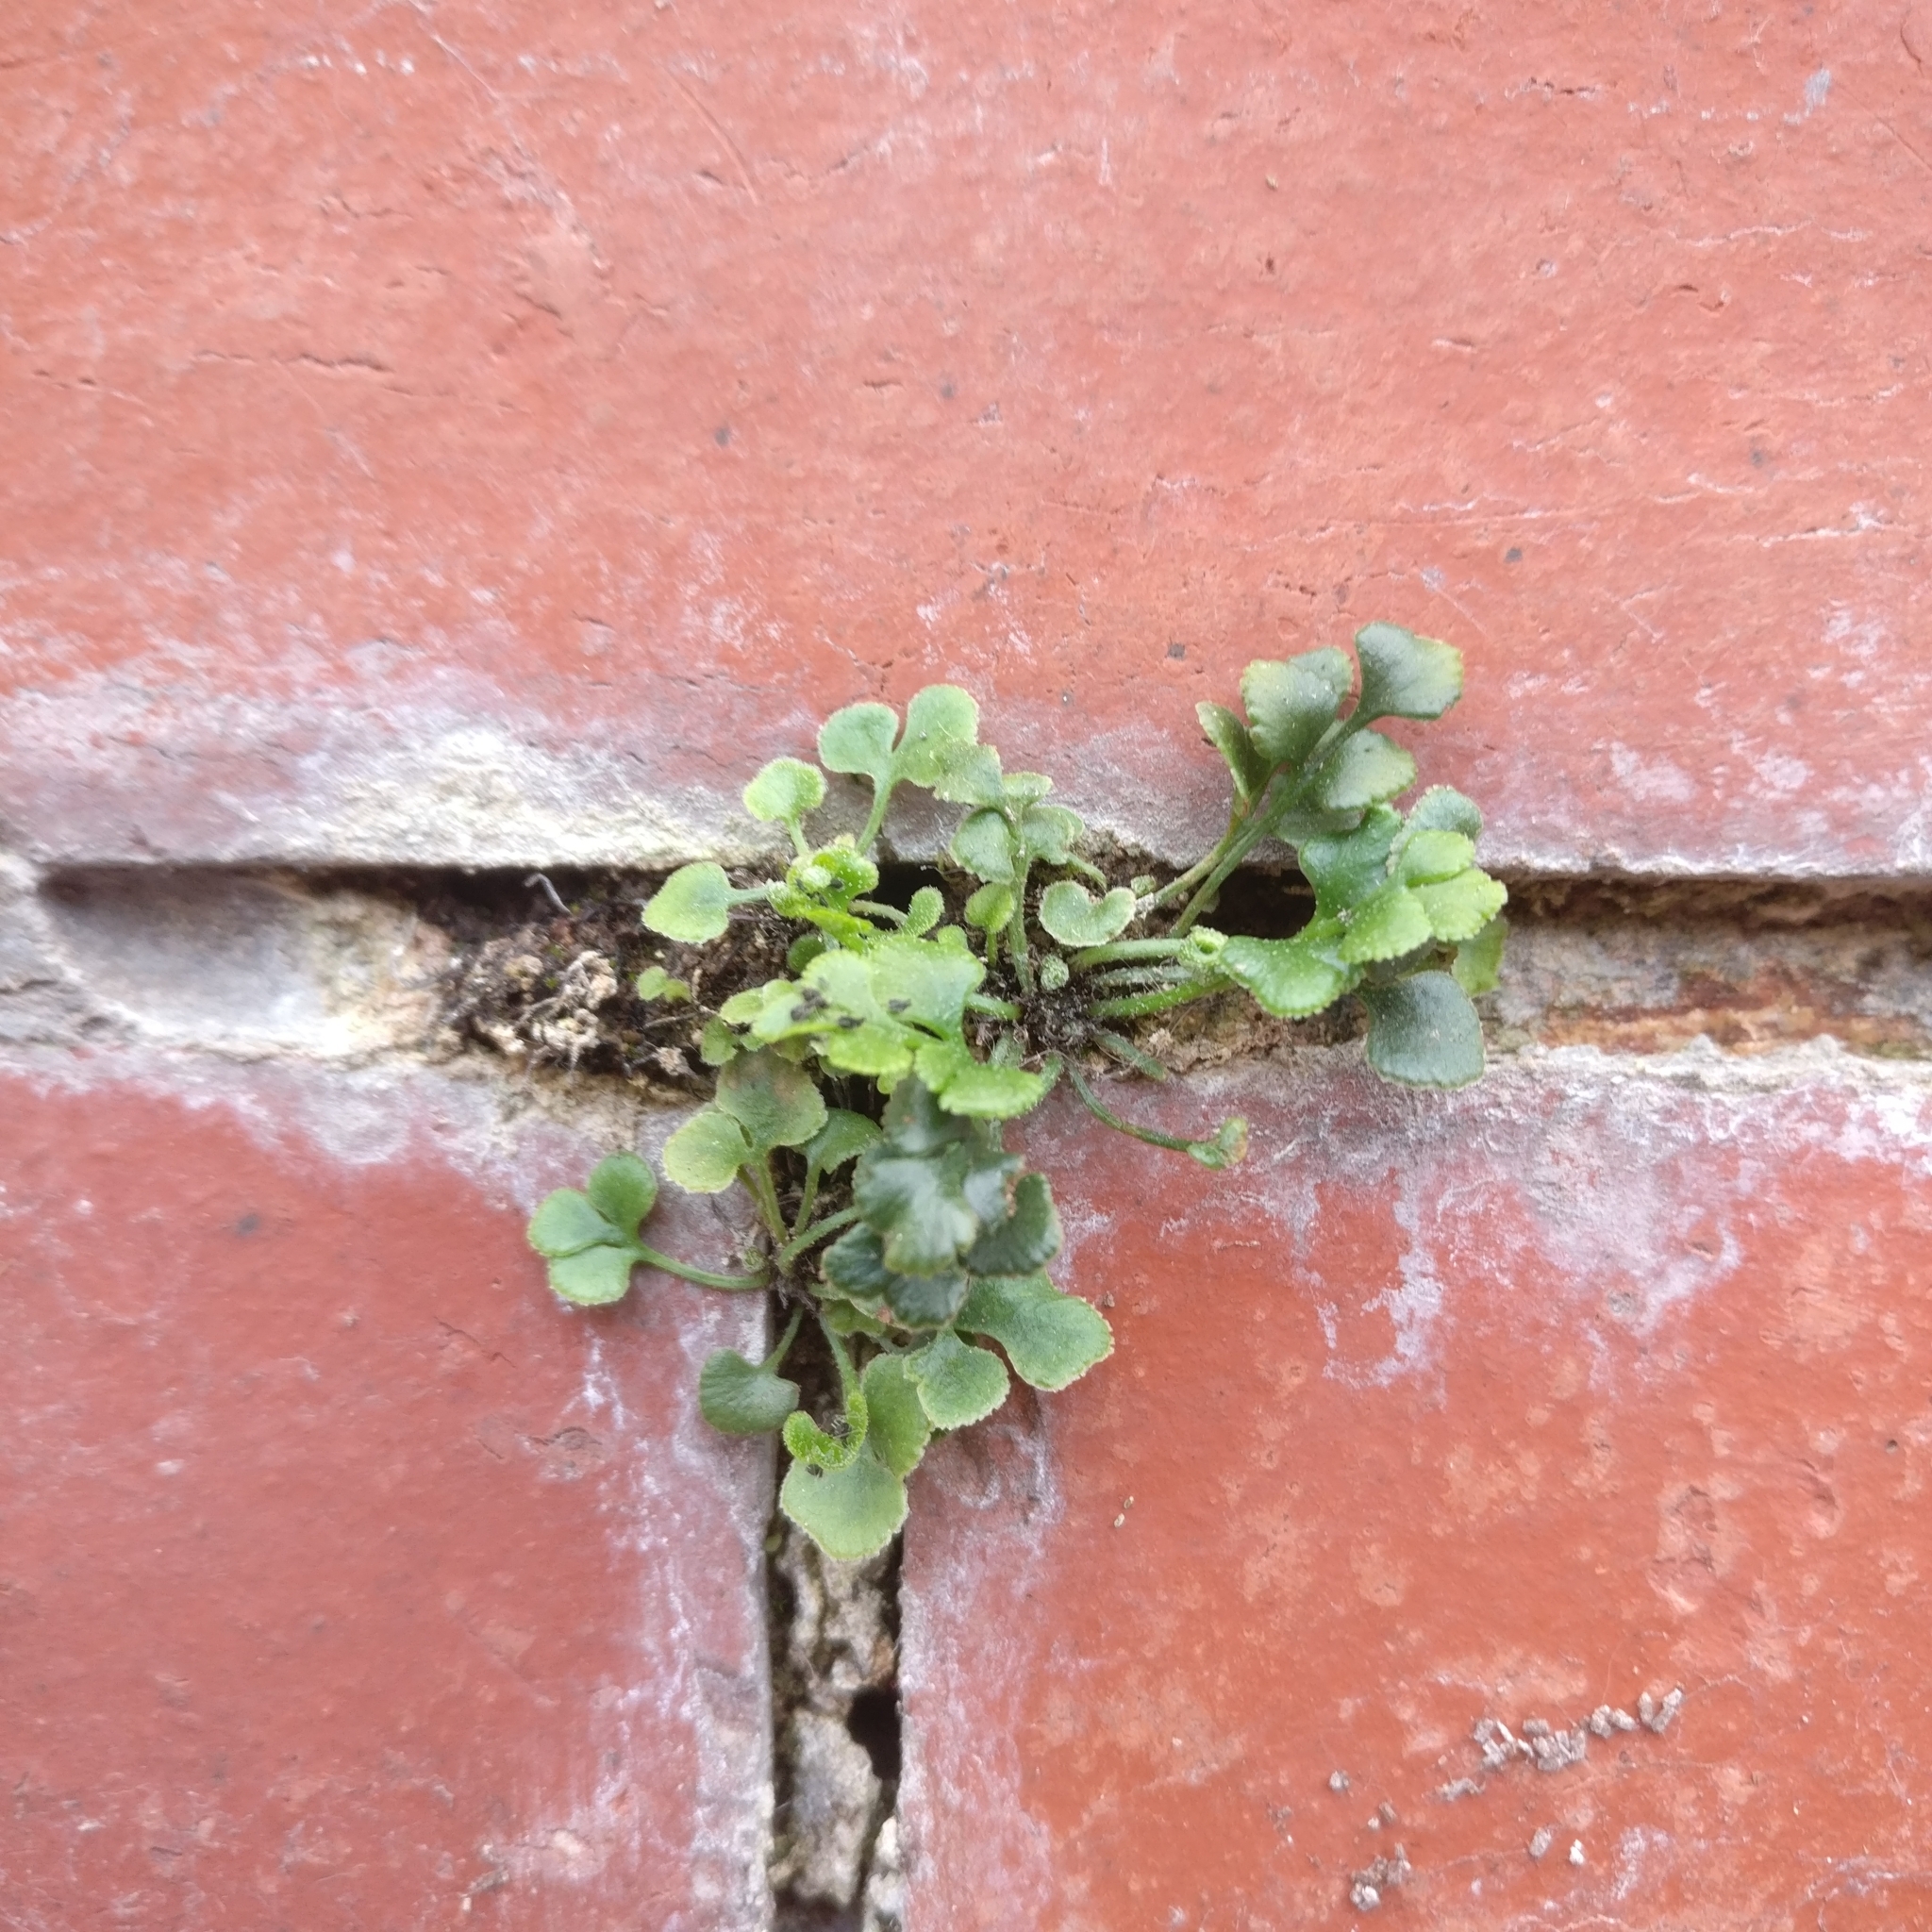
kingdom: Plantae
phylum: Tracheophyta
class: Polypodiopsida
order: Polypodiales
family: Aspleniaceae
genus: Asplenium
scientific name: Asplenium ruta-muraria
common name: Wall-rue
